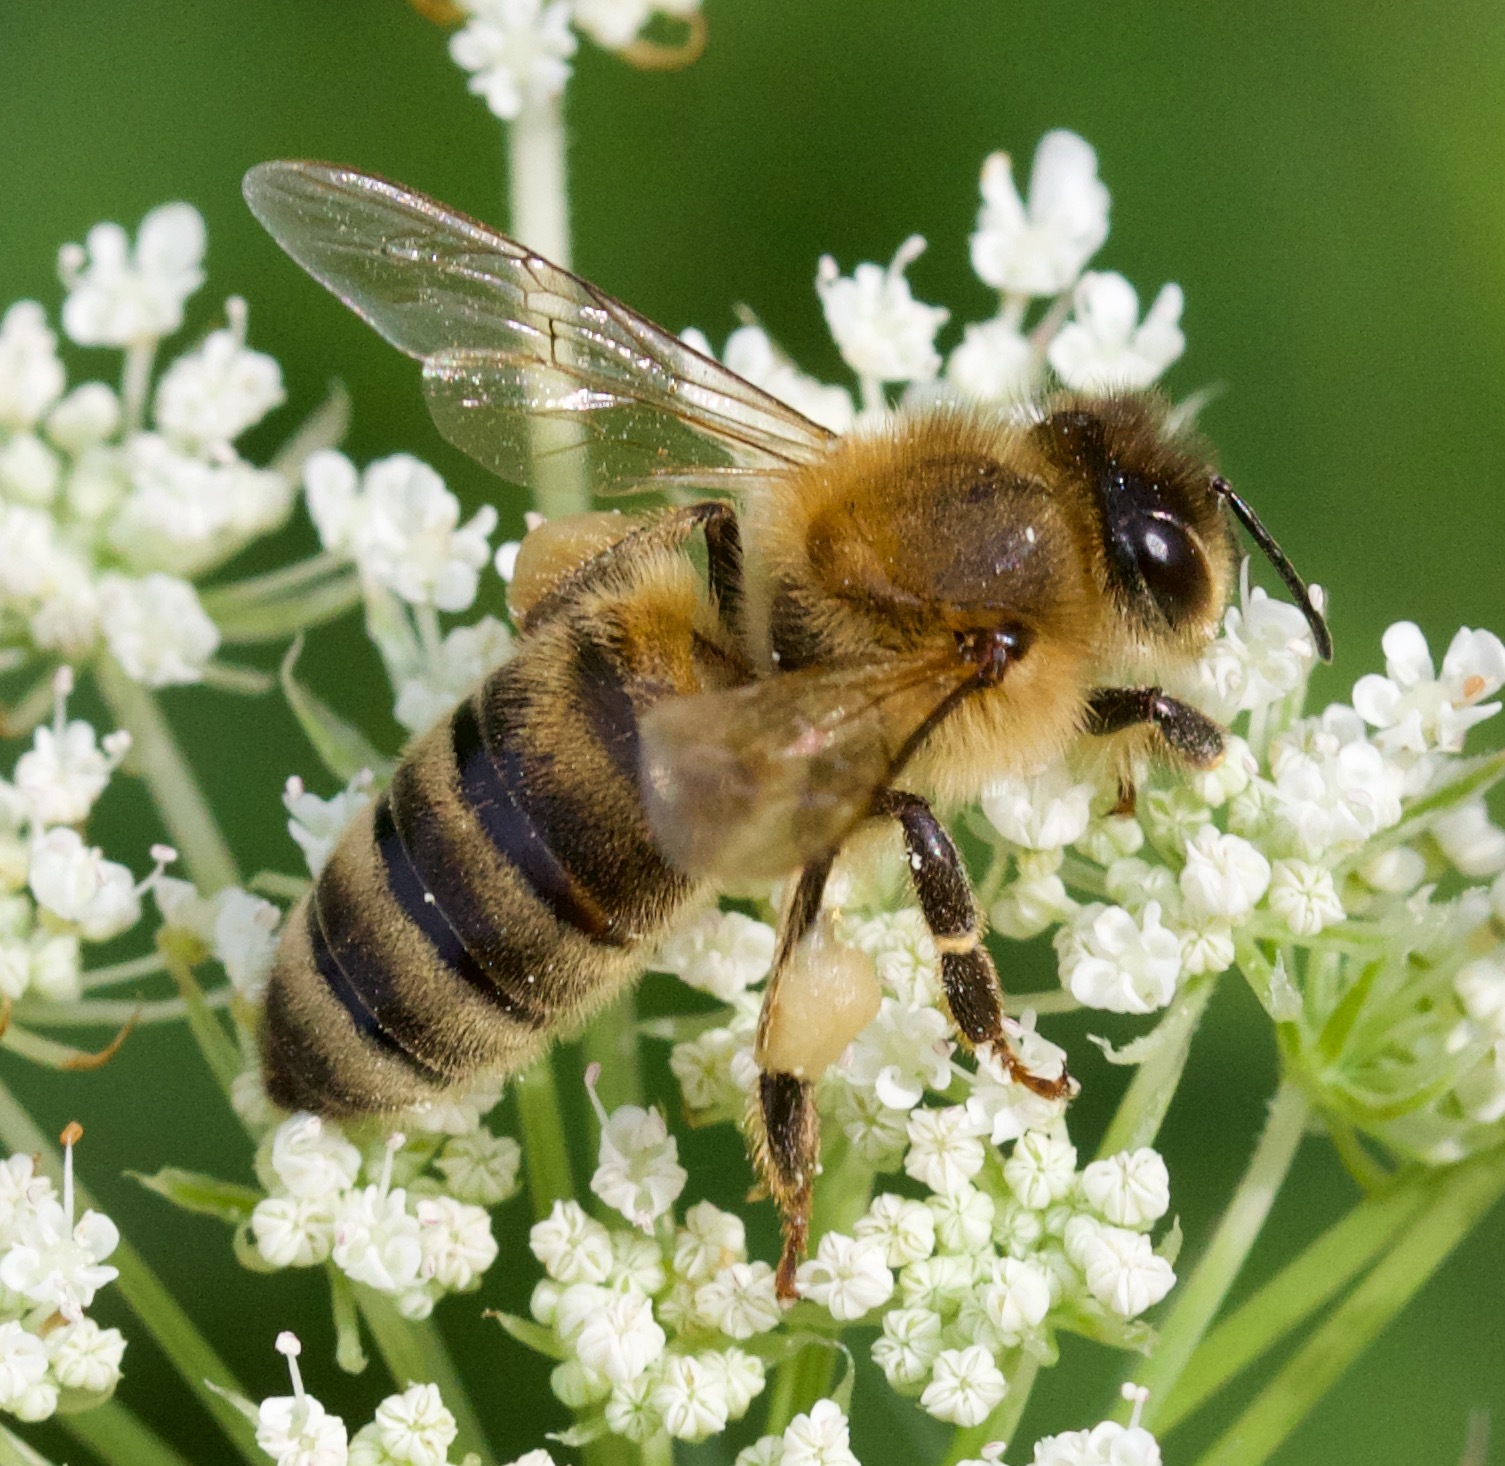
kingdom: Animalia
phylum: Arthropoda
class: Insecta
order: Hymenoptera
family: Apidae
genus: Apis
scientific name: Apis mellifera
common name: Honey bee
